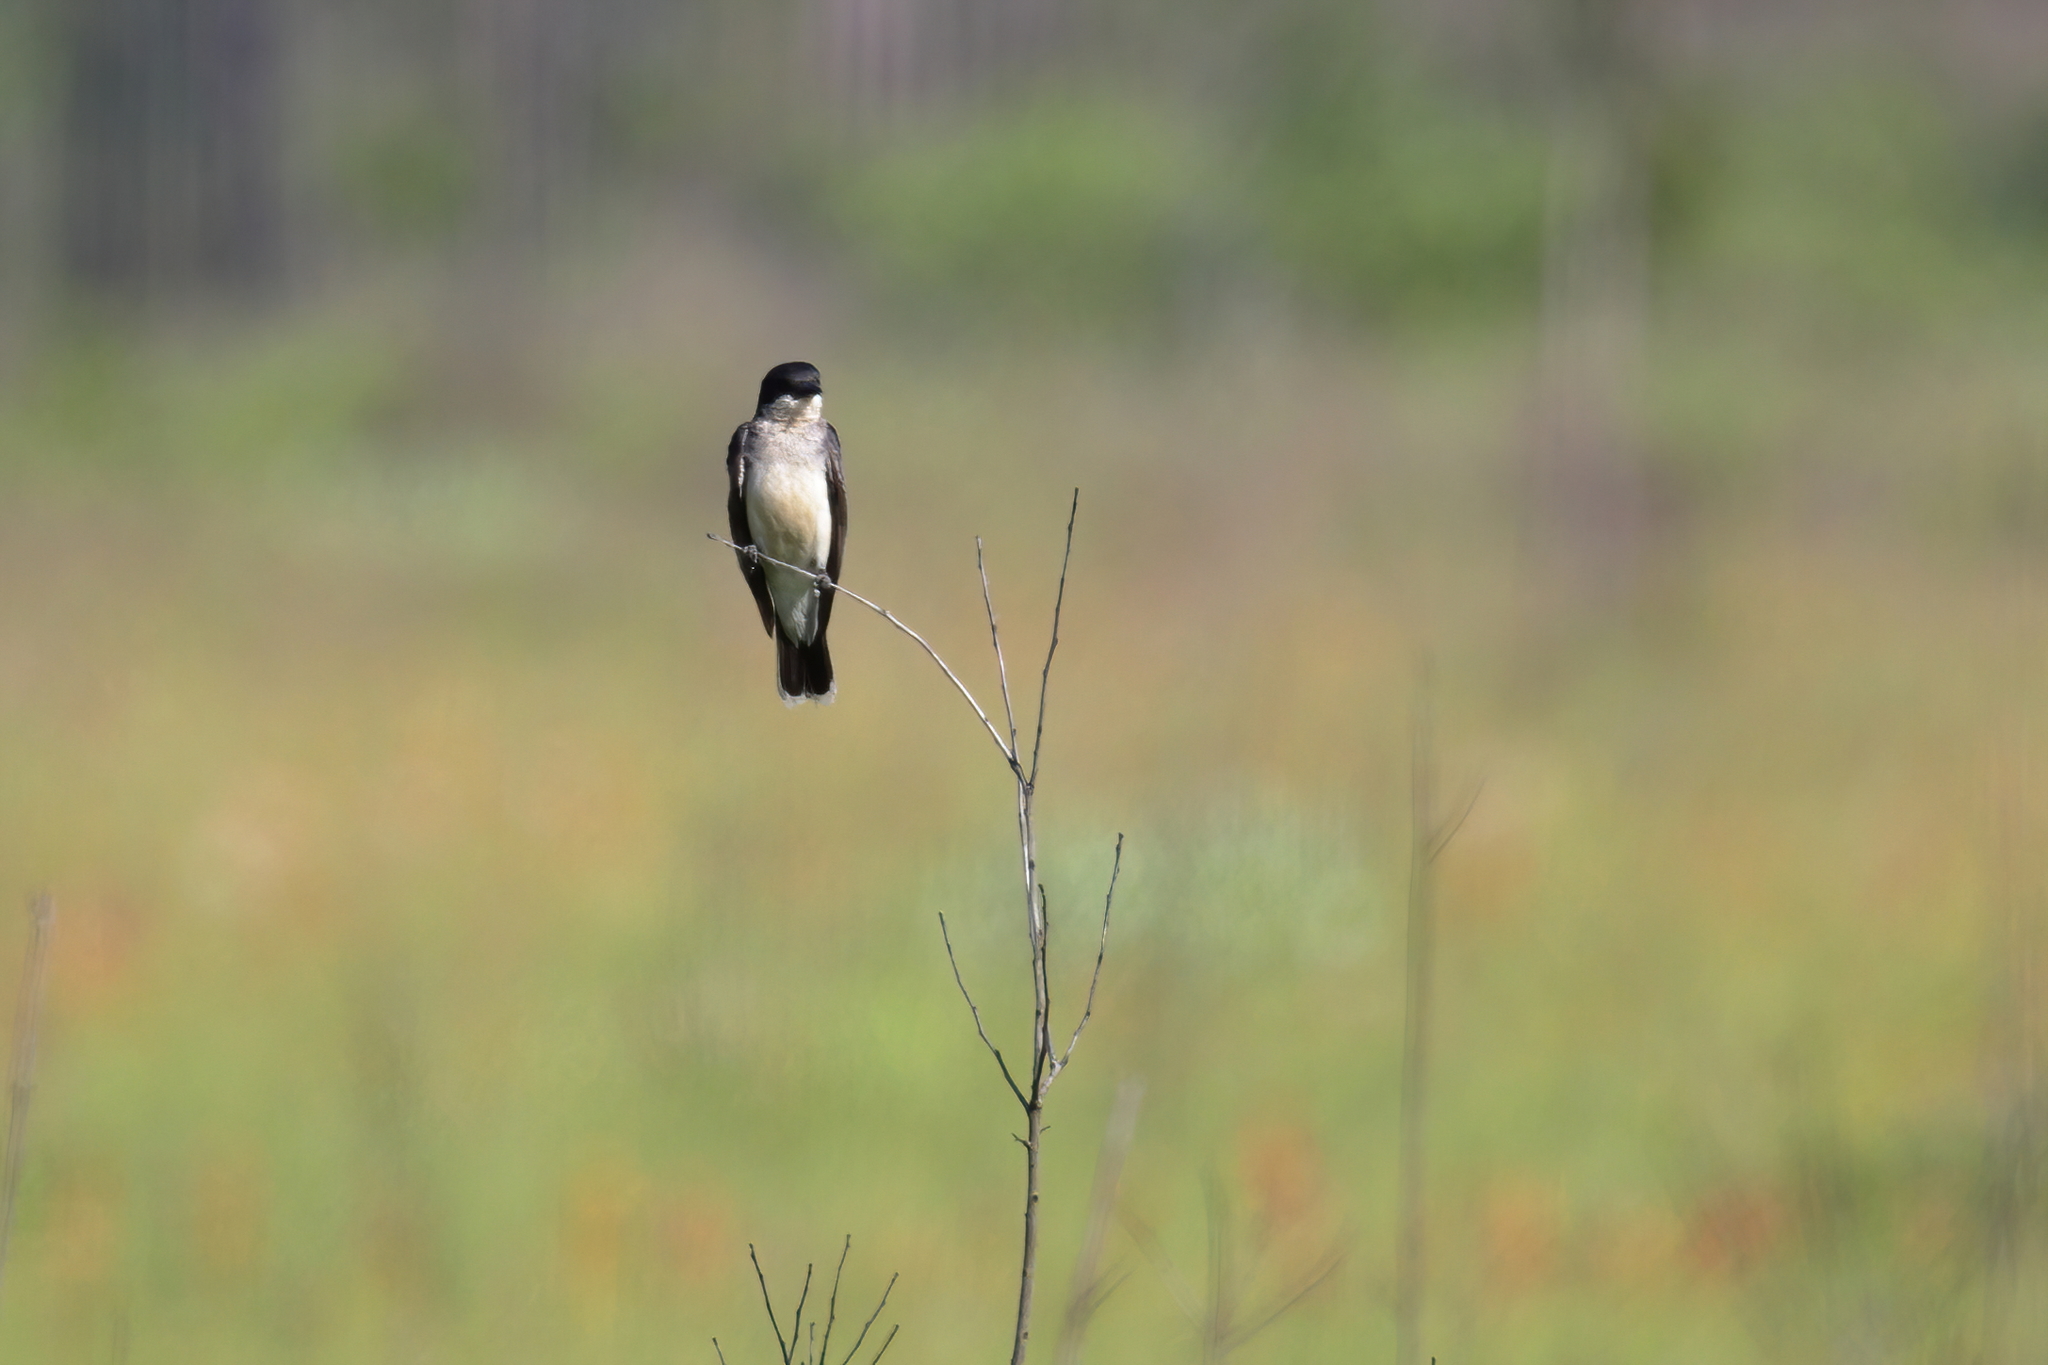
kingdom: Animalia
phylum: Chordata
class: Aves
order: Passeriformes
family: Tyrannidae
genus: Tyrannus
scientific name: Tyrannus tyrannus
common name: Eastern kingbird
